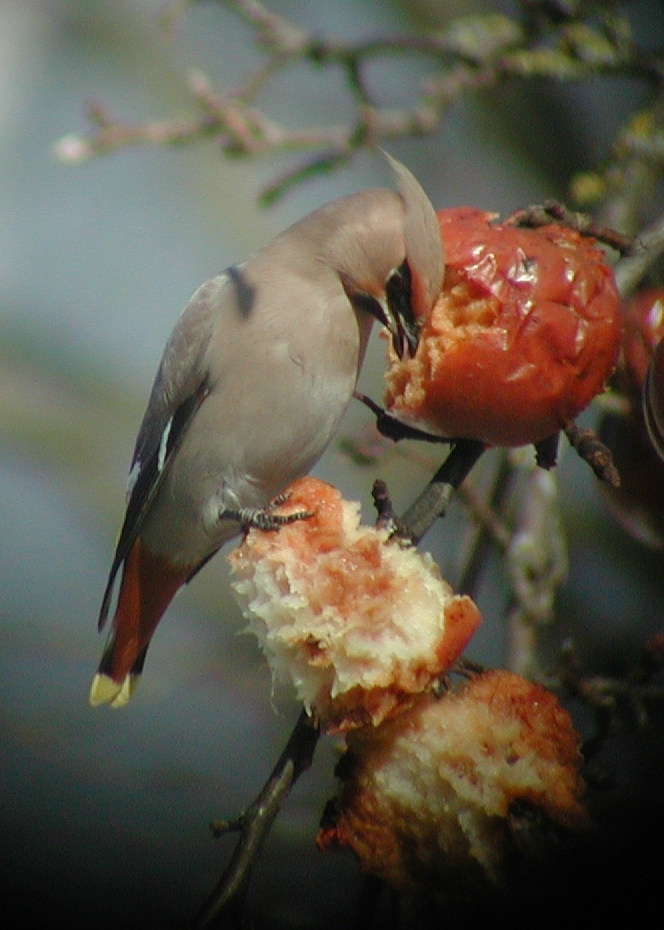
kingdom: Animalia
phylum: Chordata
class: Aves
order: Passeriformes
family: Bombycillidae
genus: Bombycilla
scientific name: Bombycilla garrulus
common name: Bohemian waxwing
